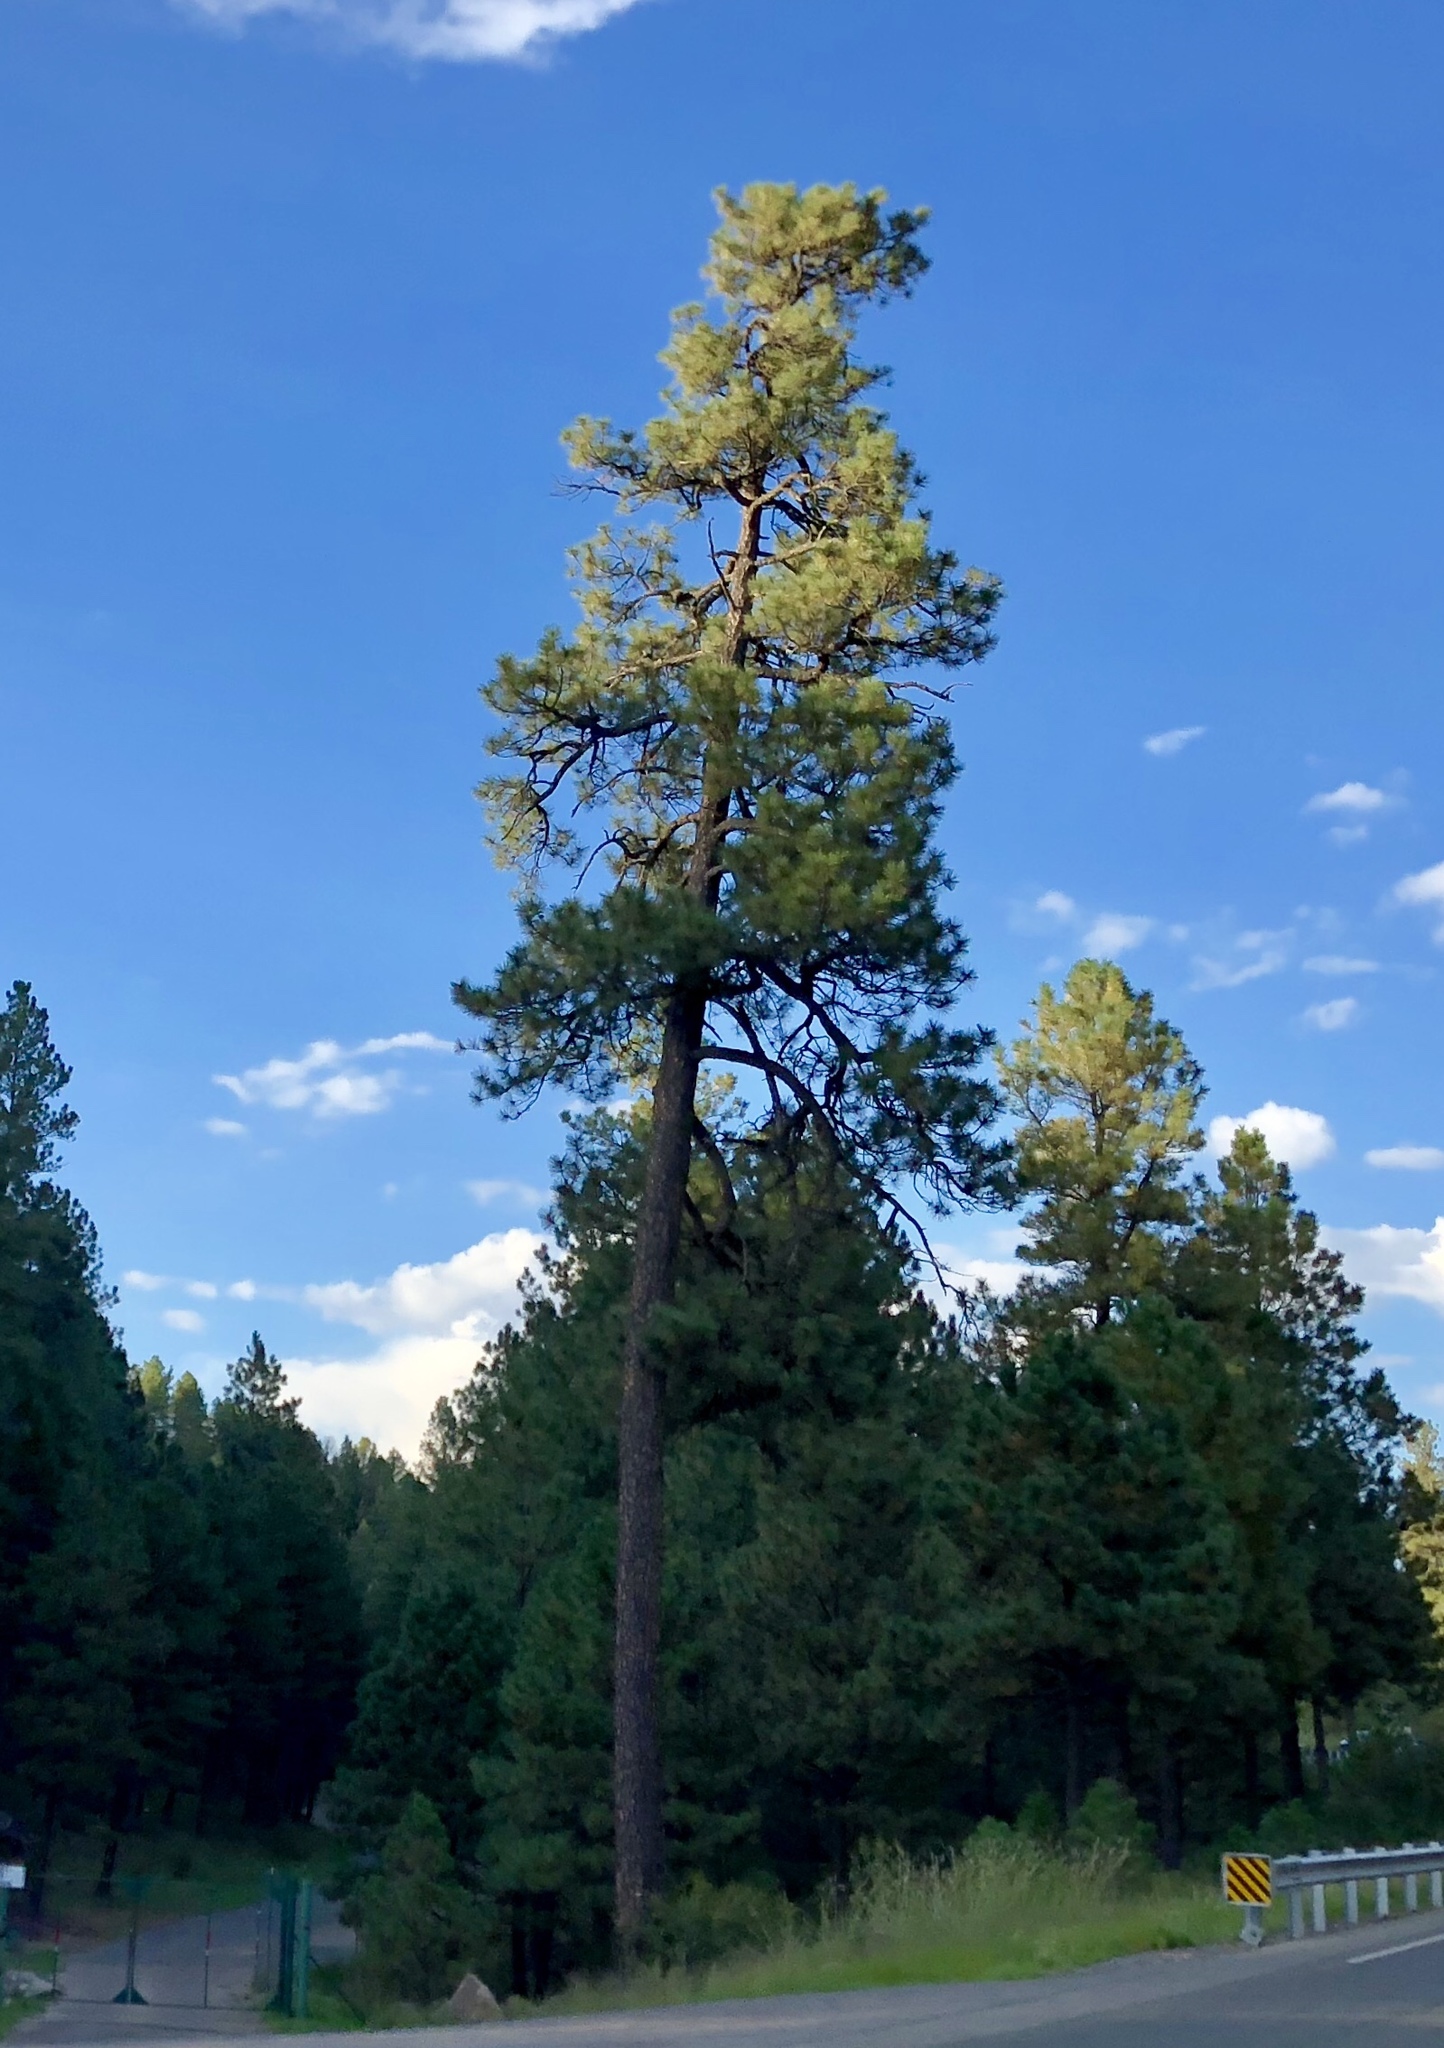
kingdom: Plantae
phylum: Tracheophyta
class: Pinopsida
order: Pinales
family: Pinaceae
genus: Pinus
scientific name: Pinus ponderosa
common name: Western yellow-pine
